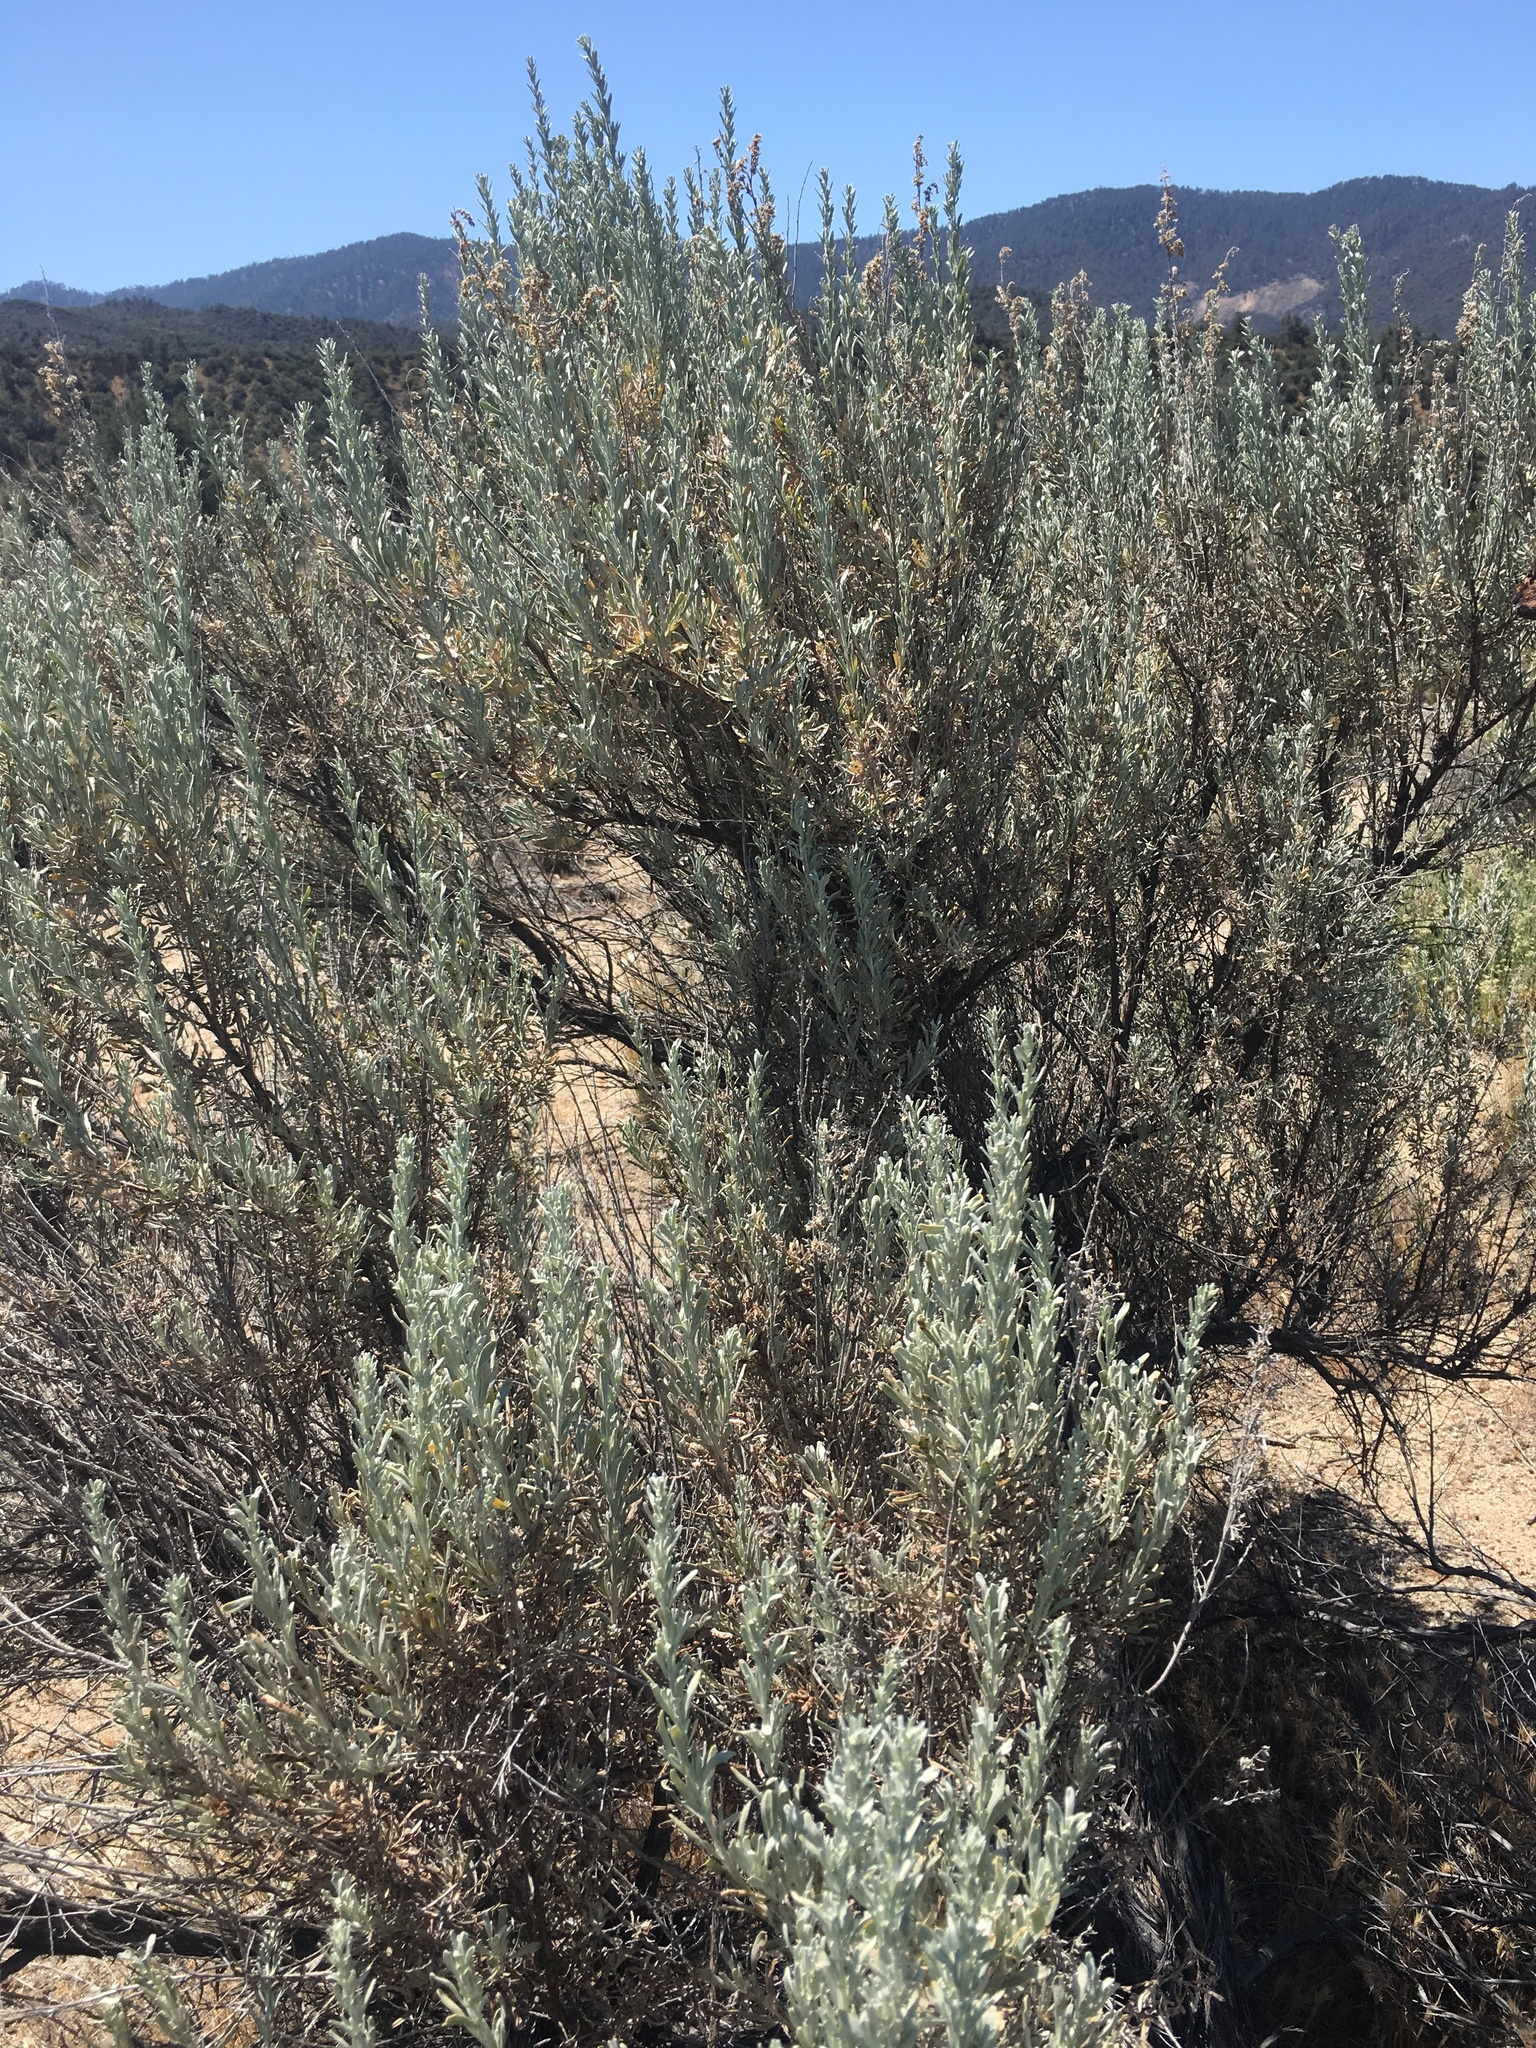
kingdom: Plantae
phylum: Tracheophyta
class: Magnoliopsida
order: Asterales
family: Asteraceae
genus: Artemisia
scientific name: Artemisia tridentata
